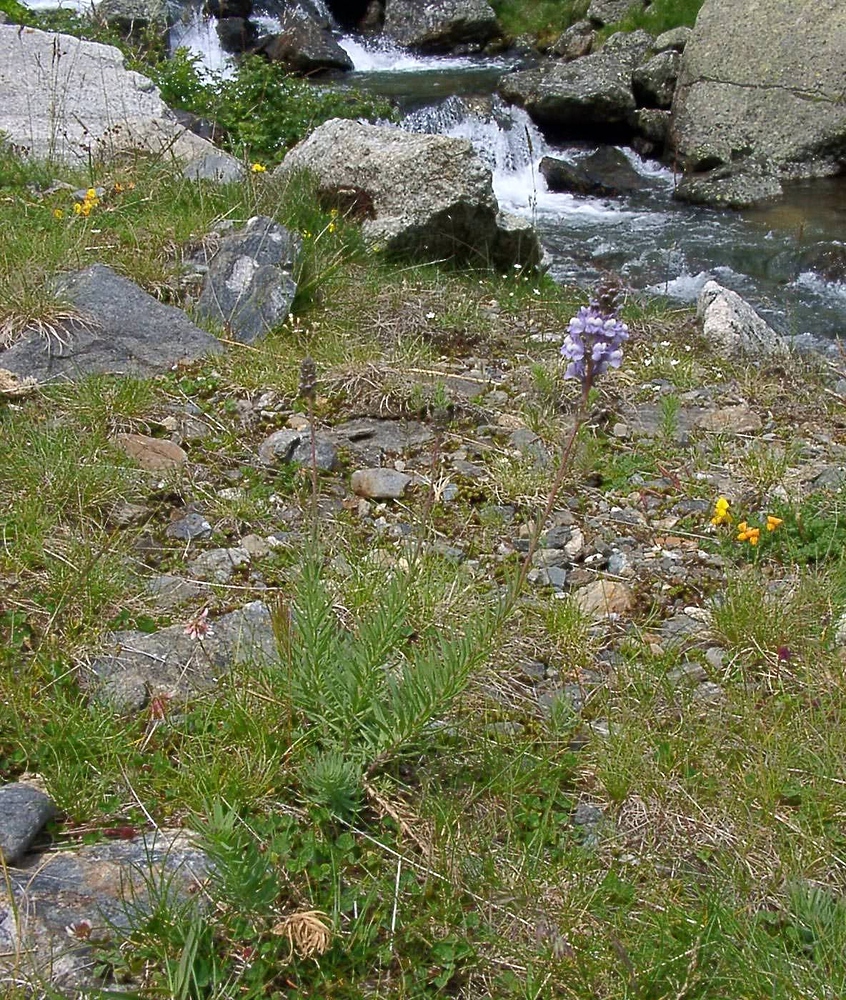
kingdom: Plantae
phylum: Tracheophyta
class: Magnoliopsida
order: Lamiales
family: Plantaginaceae
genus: Linaria
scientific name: Linaria repens
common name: Pale toadflax
